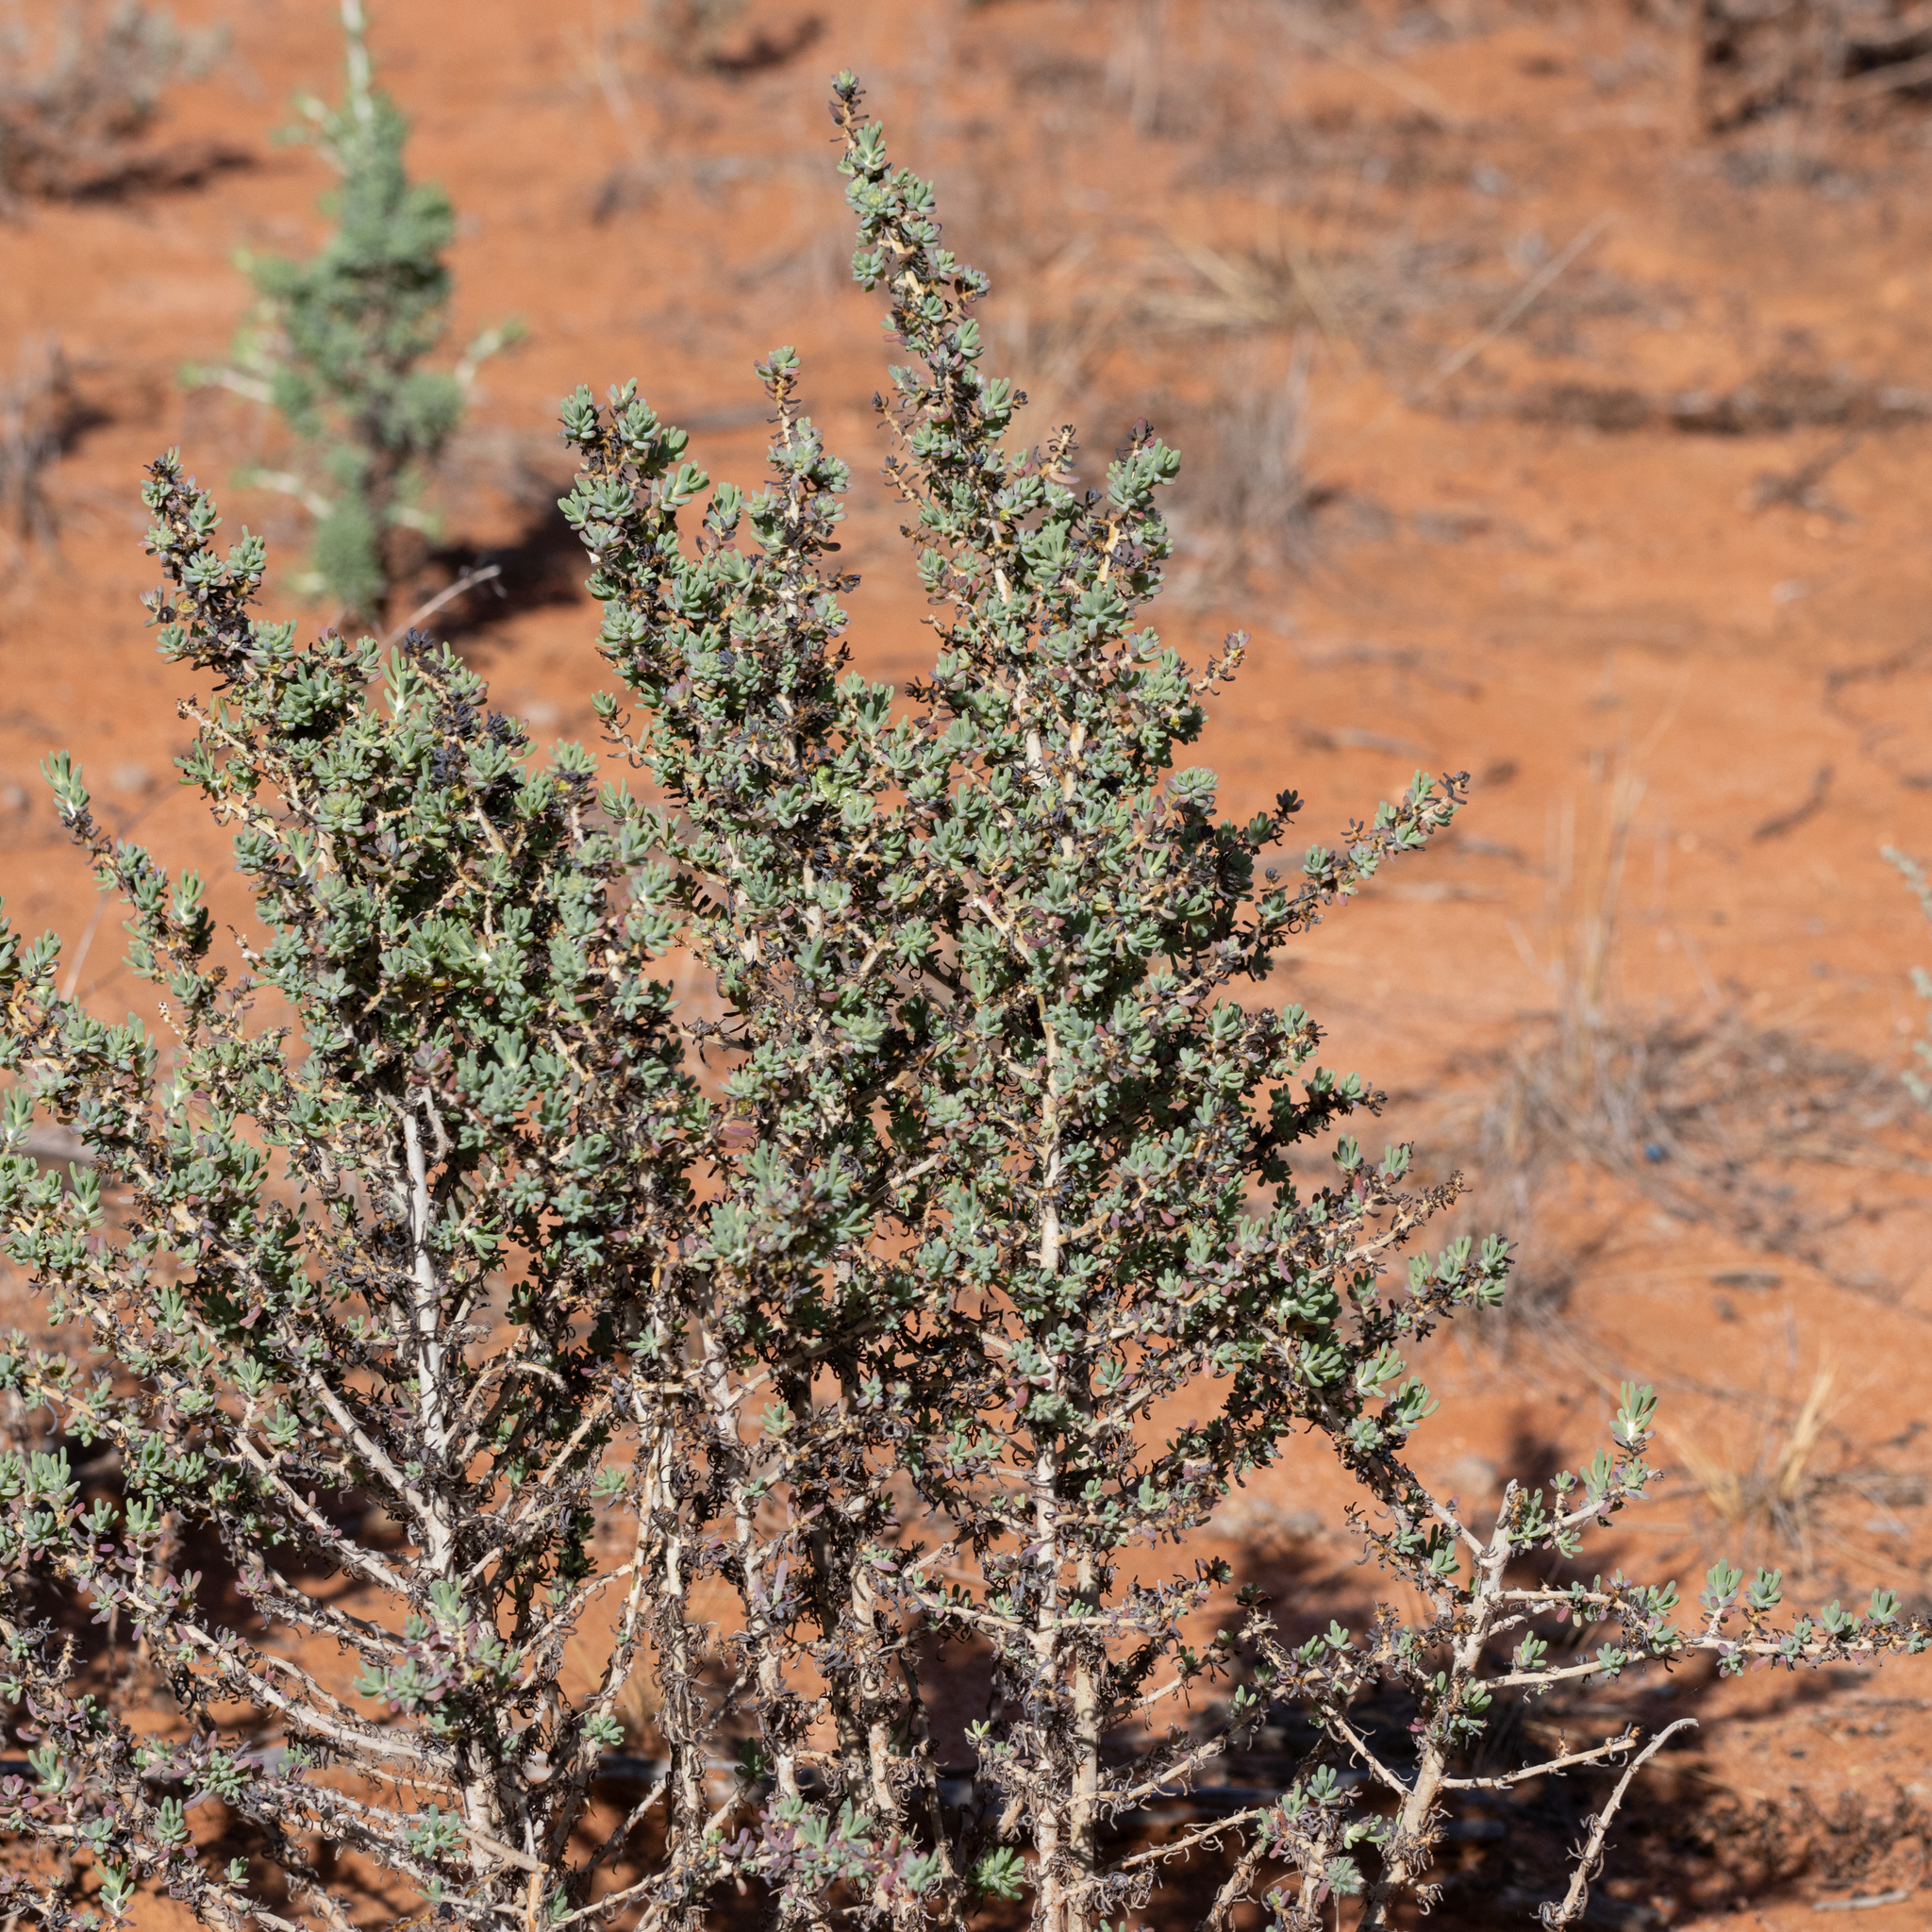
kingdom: Plantae
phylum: Tracheophyta
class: Magnoliopsida
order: Caryophyllales
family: Amaranthaceae
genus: Maireana
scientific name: Maireana pentatropis
